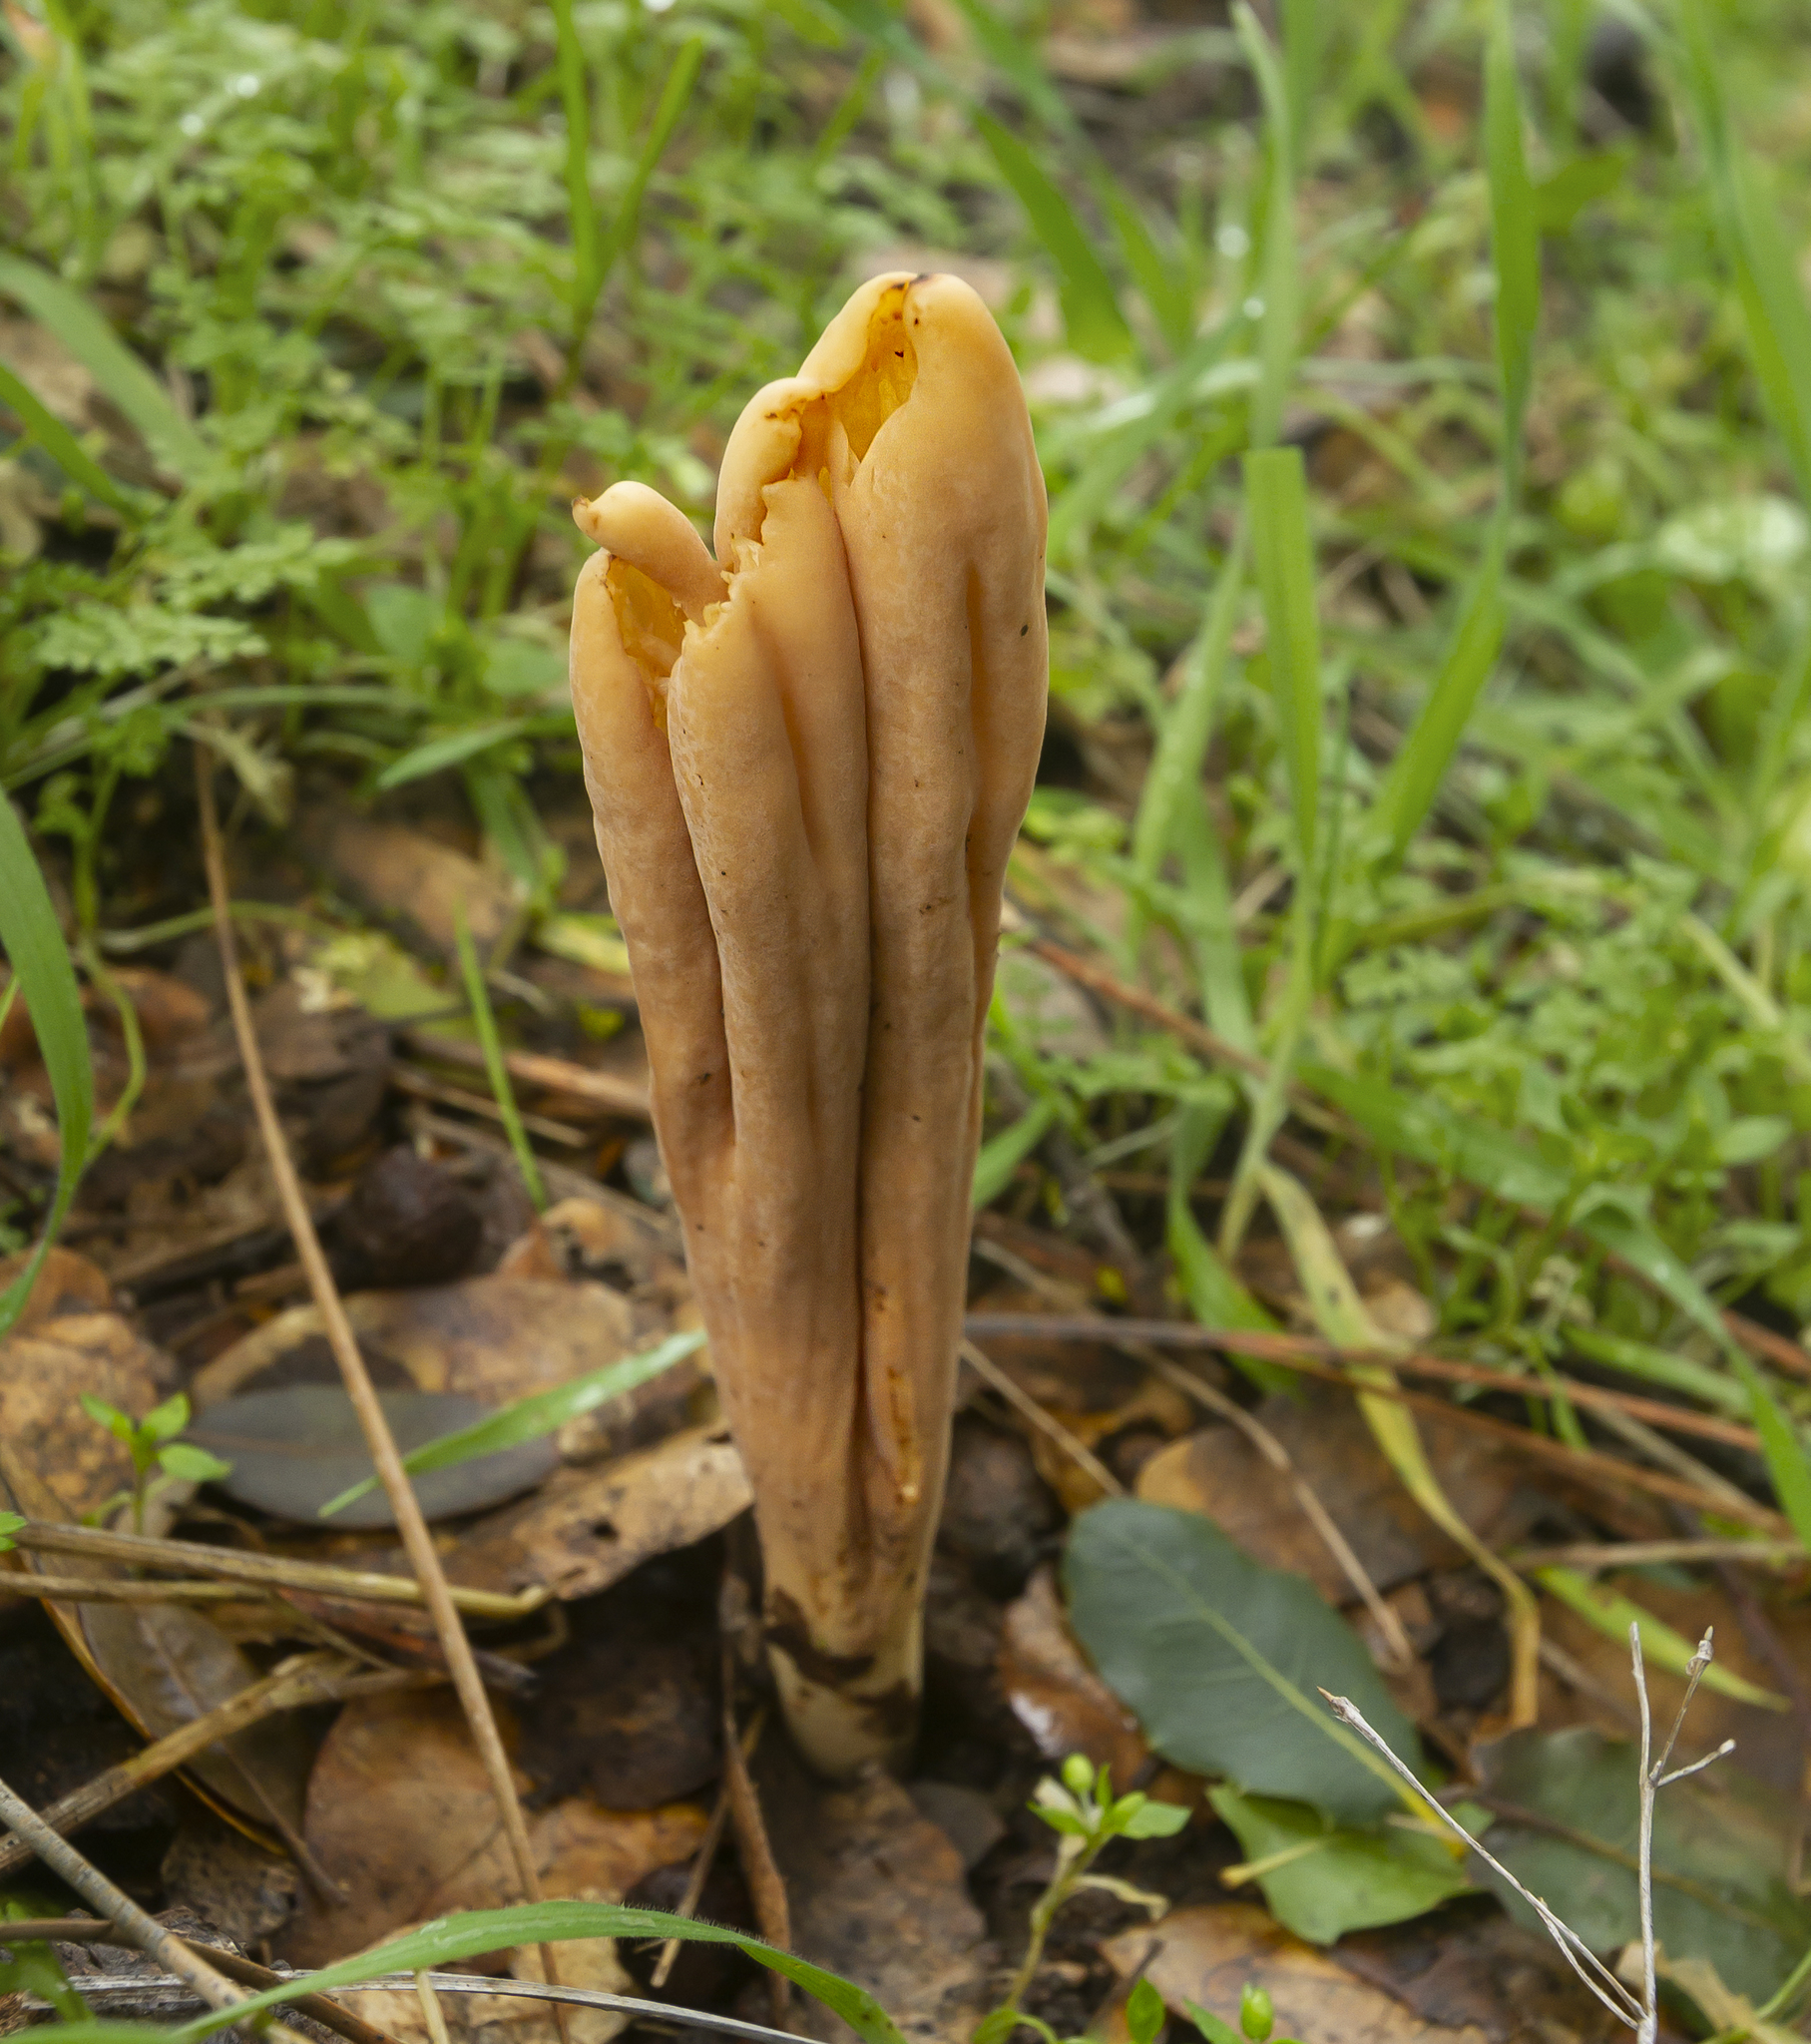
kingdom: Fungi
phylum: Basidiomycota
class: Agaricomycetes
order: Gomphales
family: Clavariadelphaceae
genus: Clavariadelphus
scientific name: Clavariadelphus occidentalis
